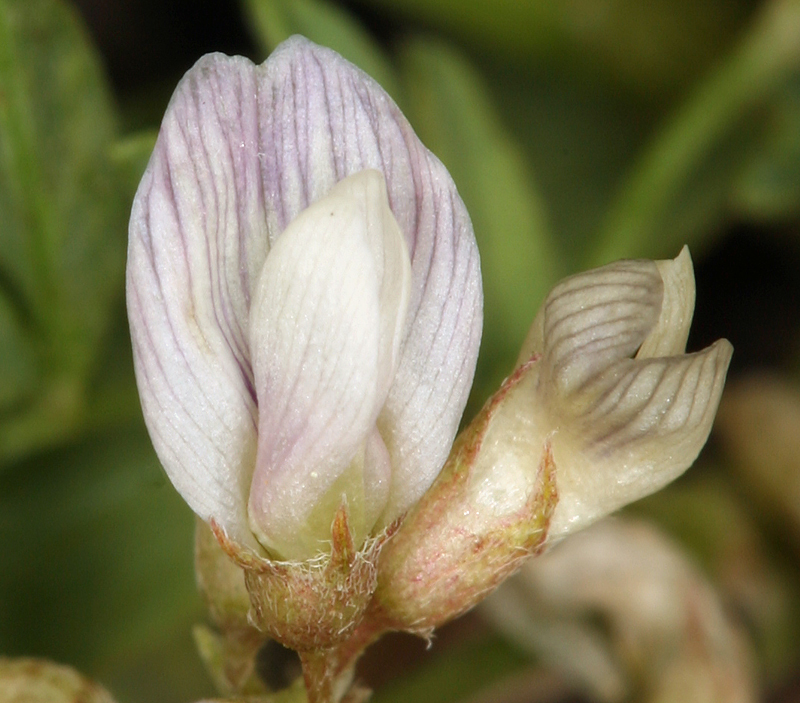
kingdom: Plantae
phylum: Tracheophyta
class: Magnoliopsida
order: Fabales
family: Fabaceae
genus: Astragalus
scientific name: Astragalus lemmonii
